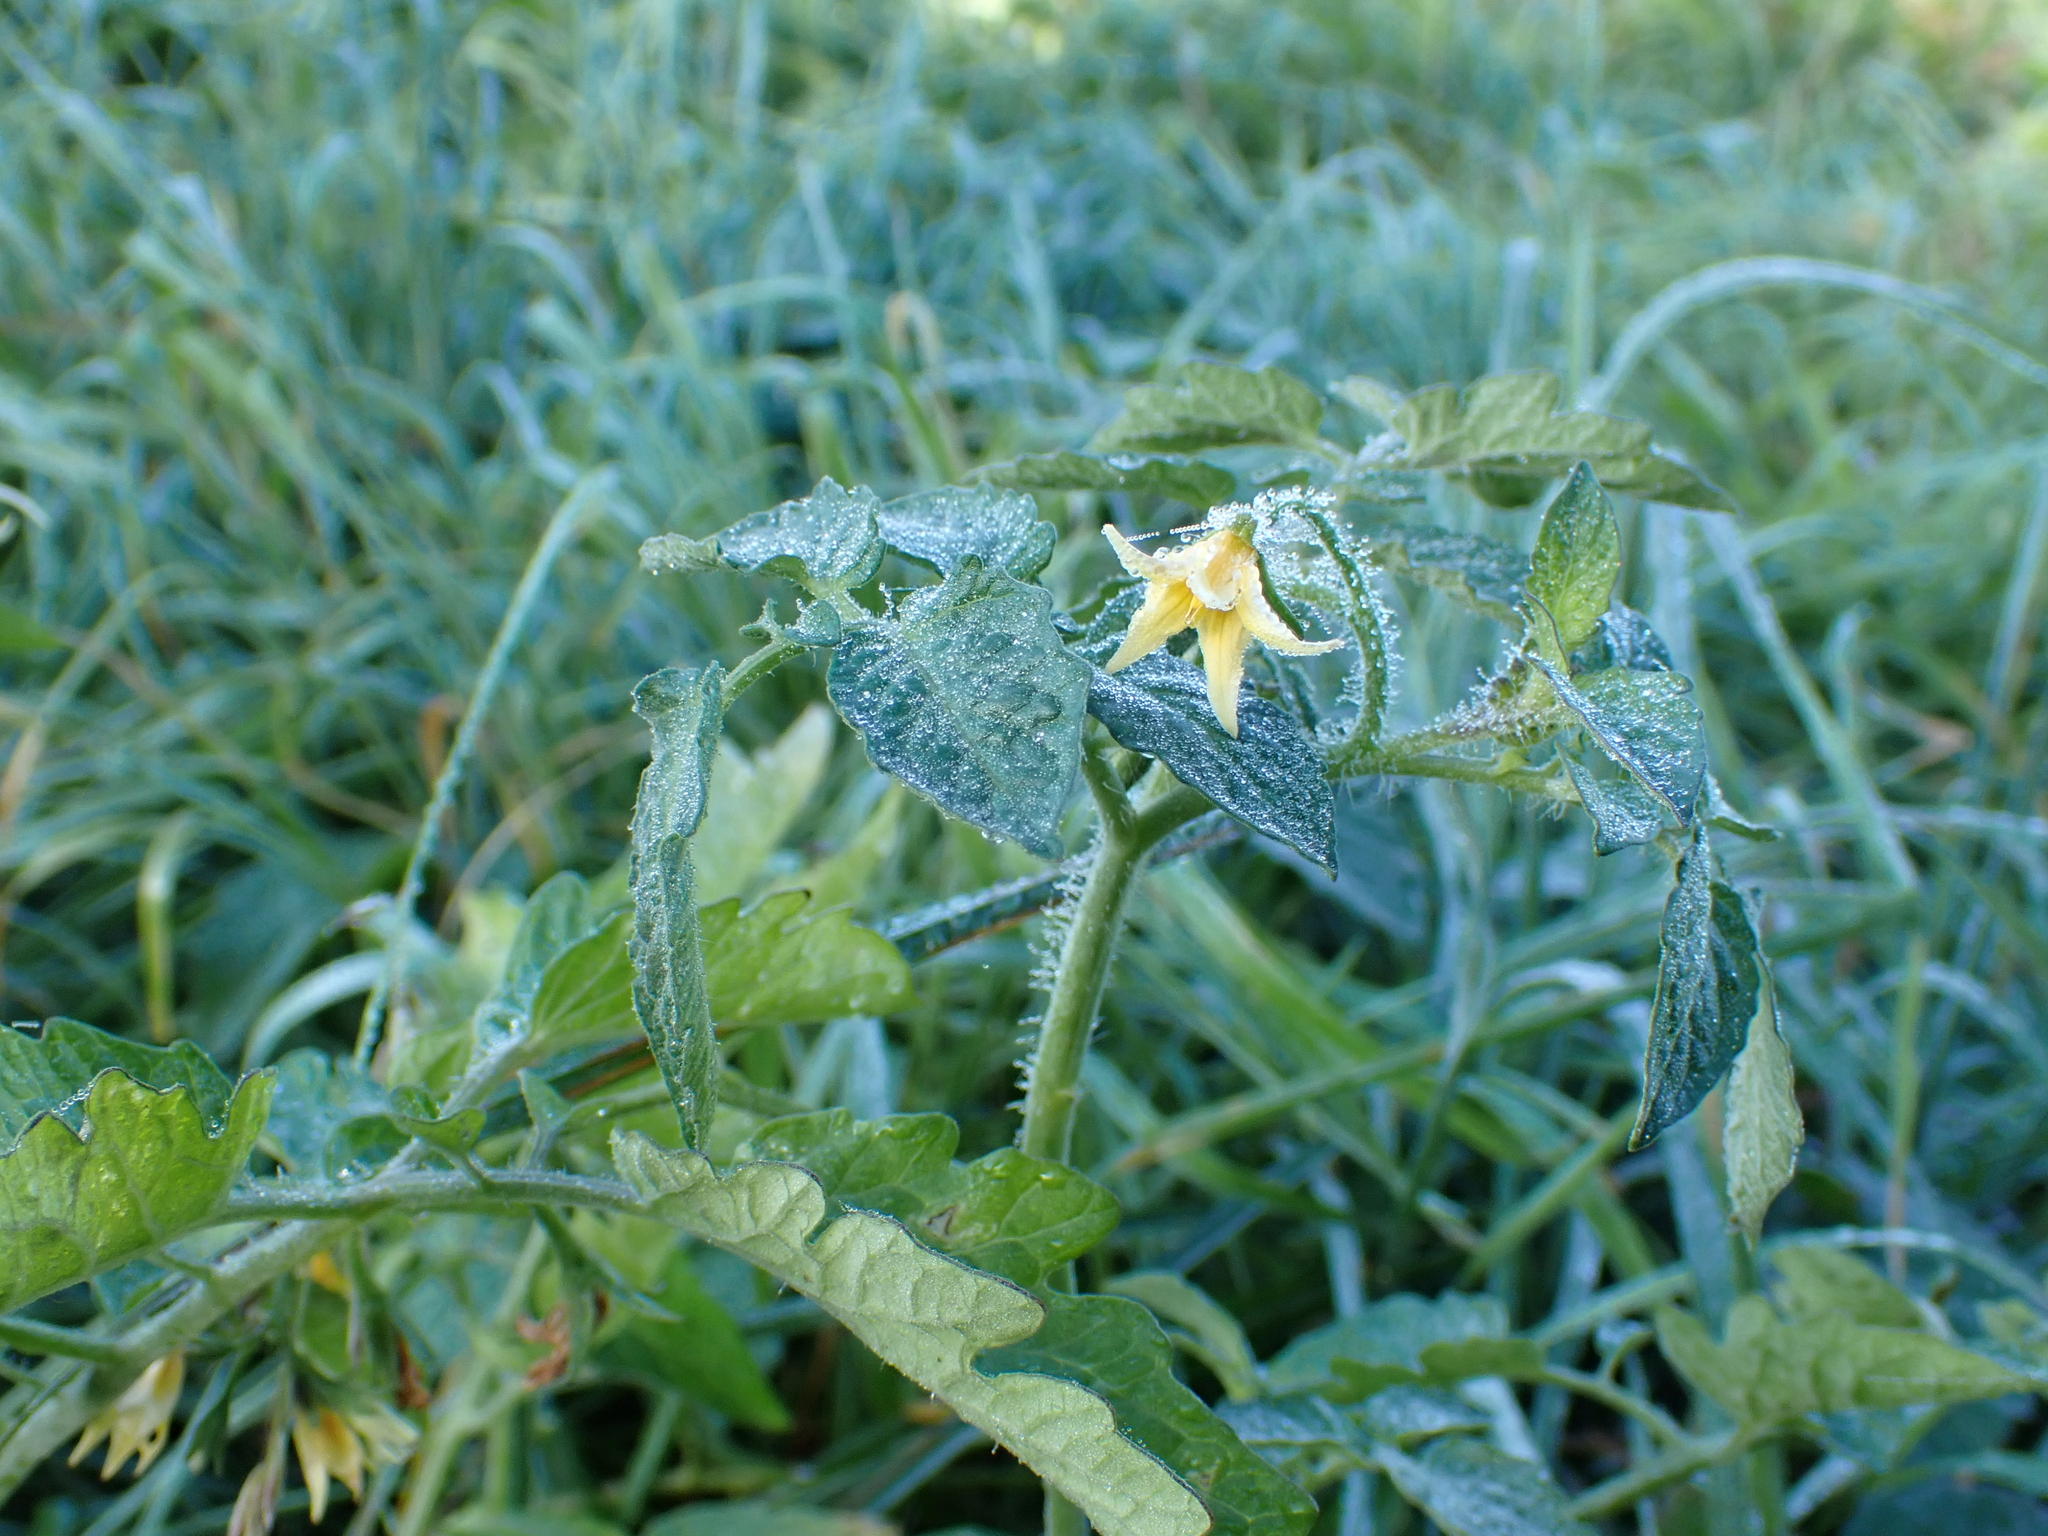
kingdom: Plantae
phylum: Tracheophyta
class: Magnoliopsida
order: Solanales
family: Solanaceae
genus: Solanum
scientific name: Solanum lycopersicum
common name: Garden tomato
